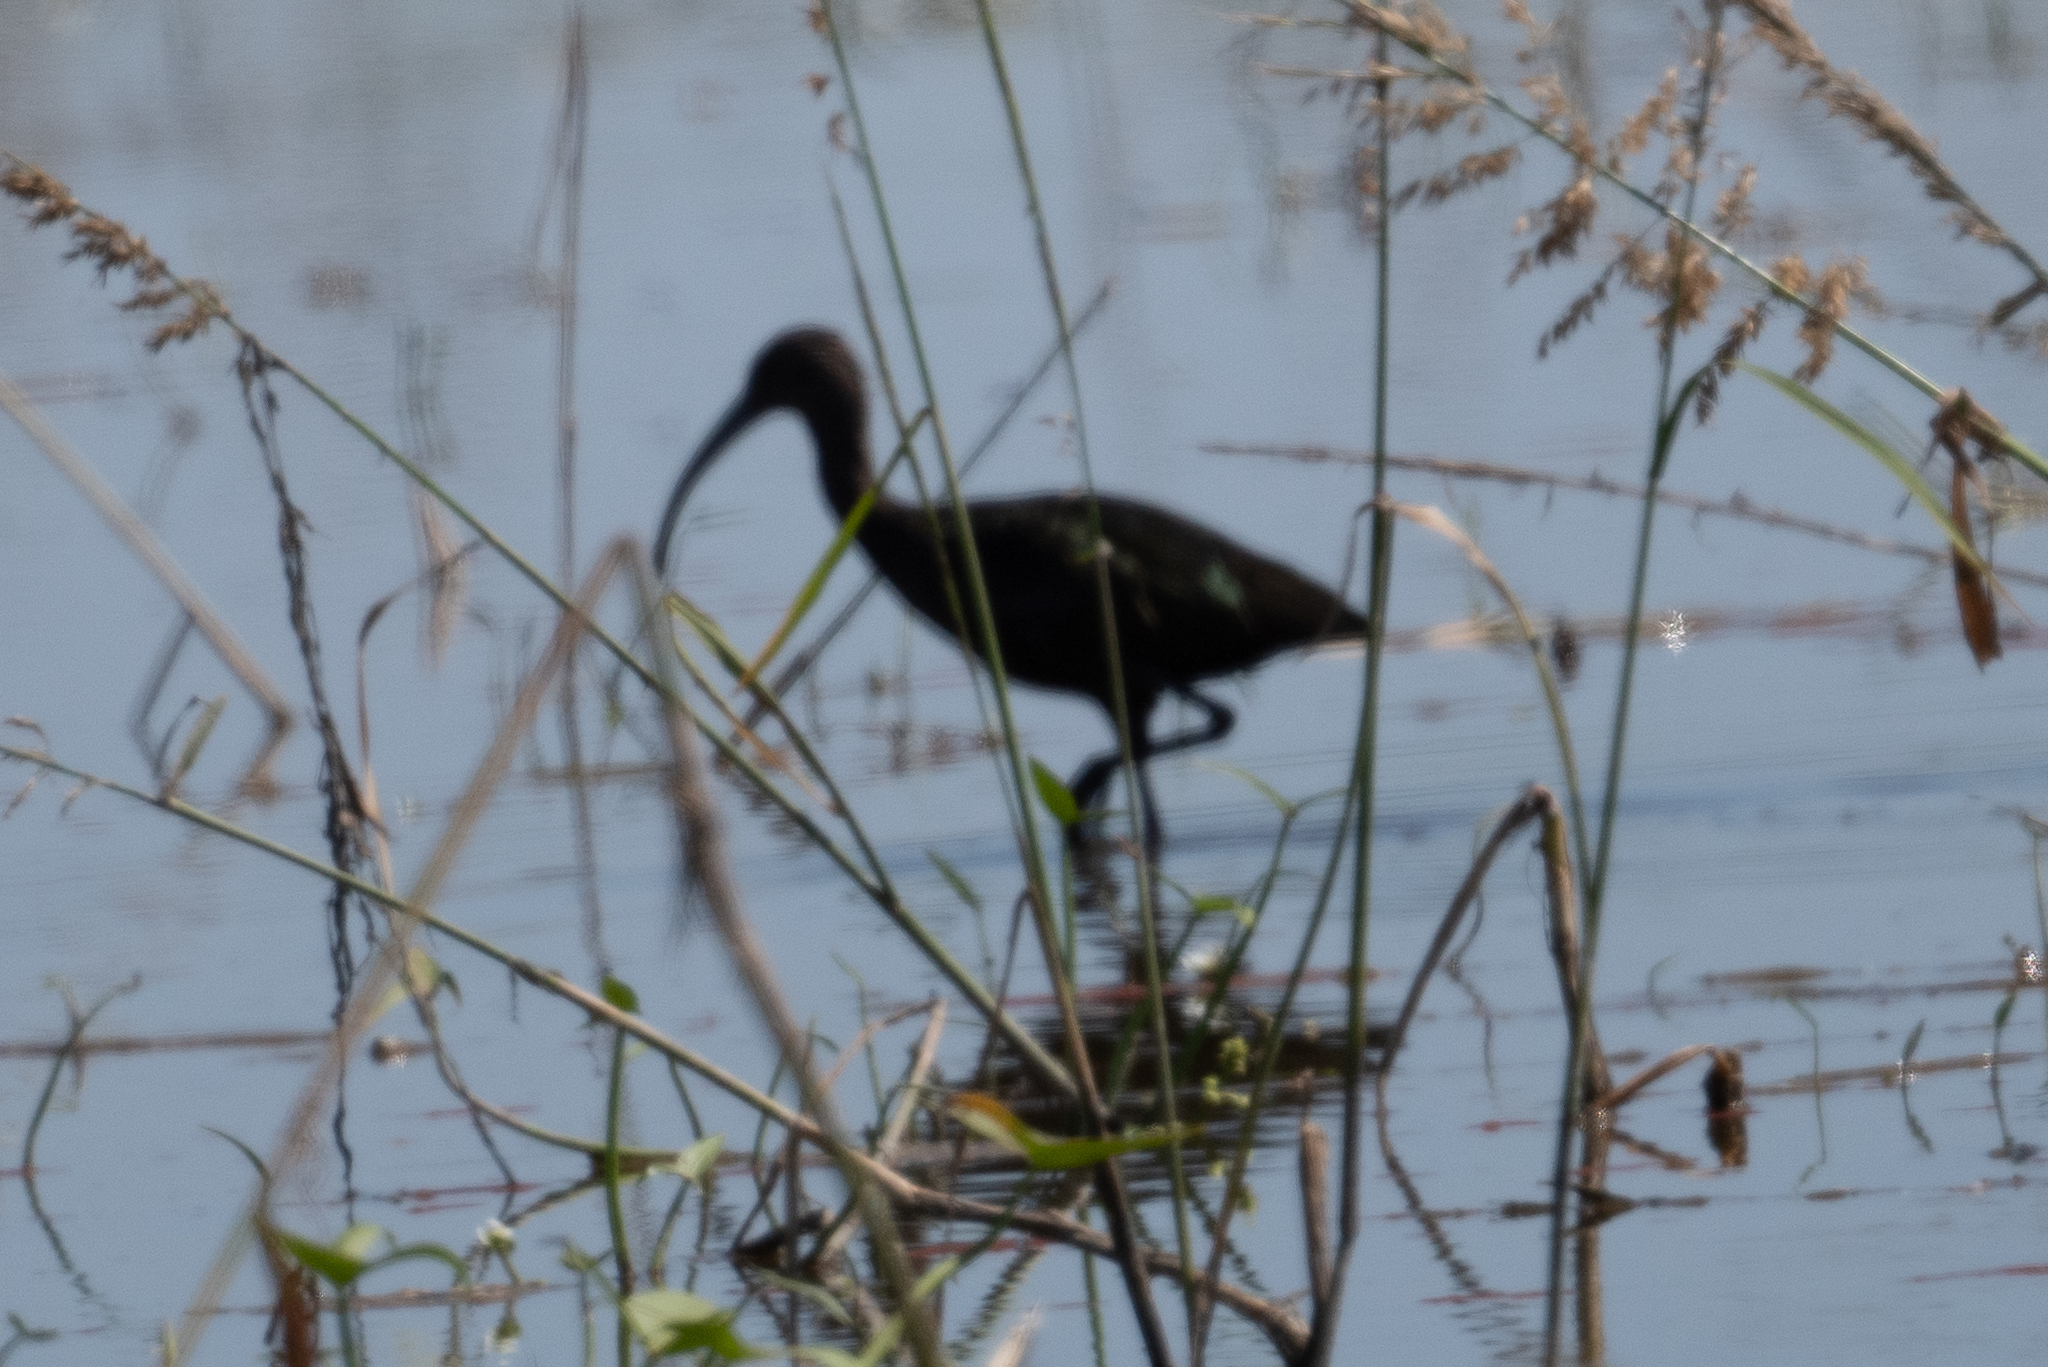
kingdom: Animalia
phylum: Chordata
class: Aves
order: Pelecaniformes
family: Threskiornithidae
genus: Plegadis
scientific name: Plegadis chihi
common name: White-faced ibis
